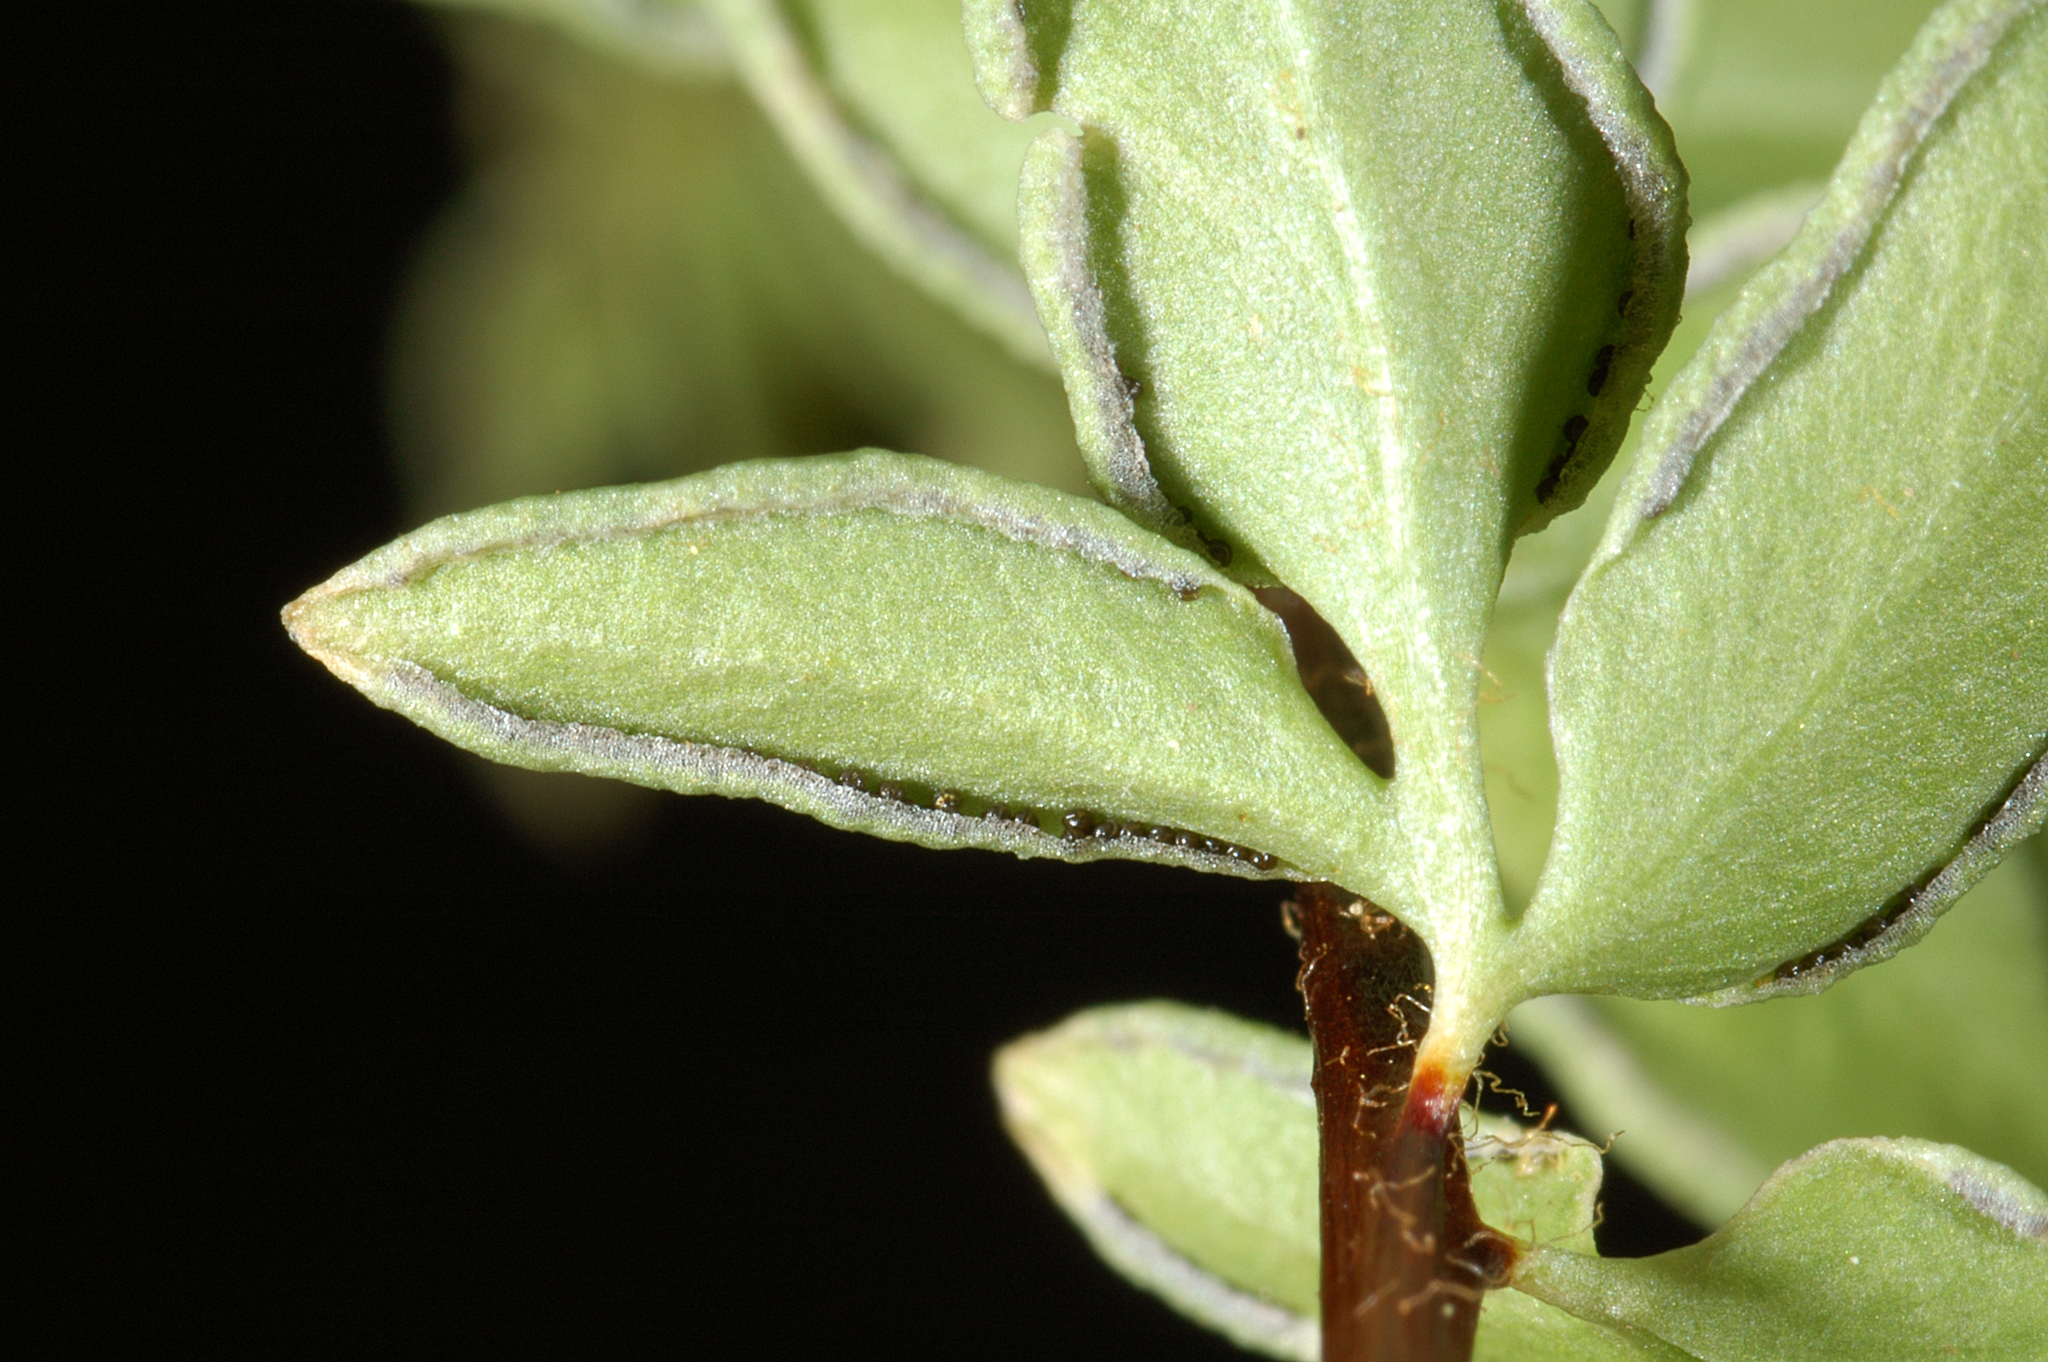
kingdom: Plantae
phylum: Tracheophyta
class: Polypodiopsida
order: Polypodiales
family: Pteridaceae
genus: Pellaea
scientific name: Pellaea breweri
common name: Brewer's cliffbrake
